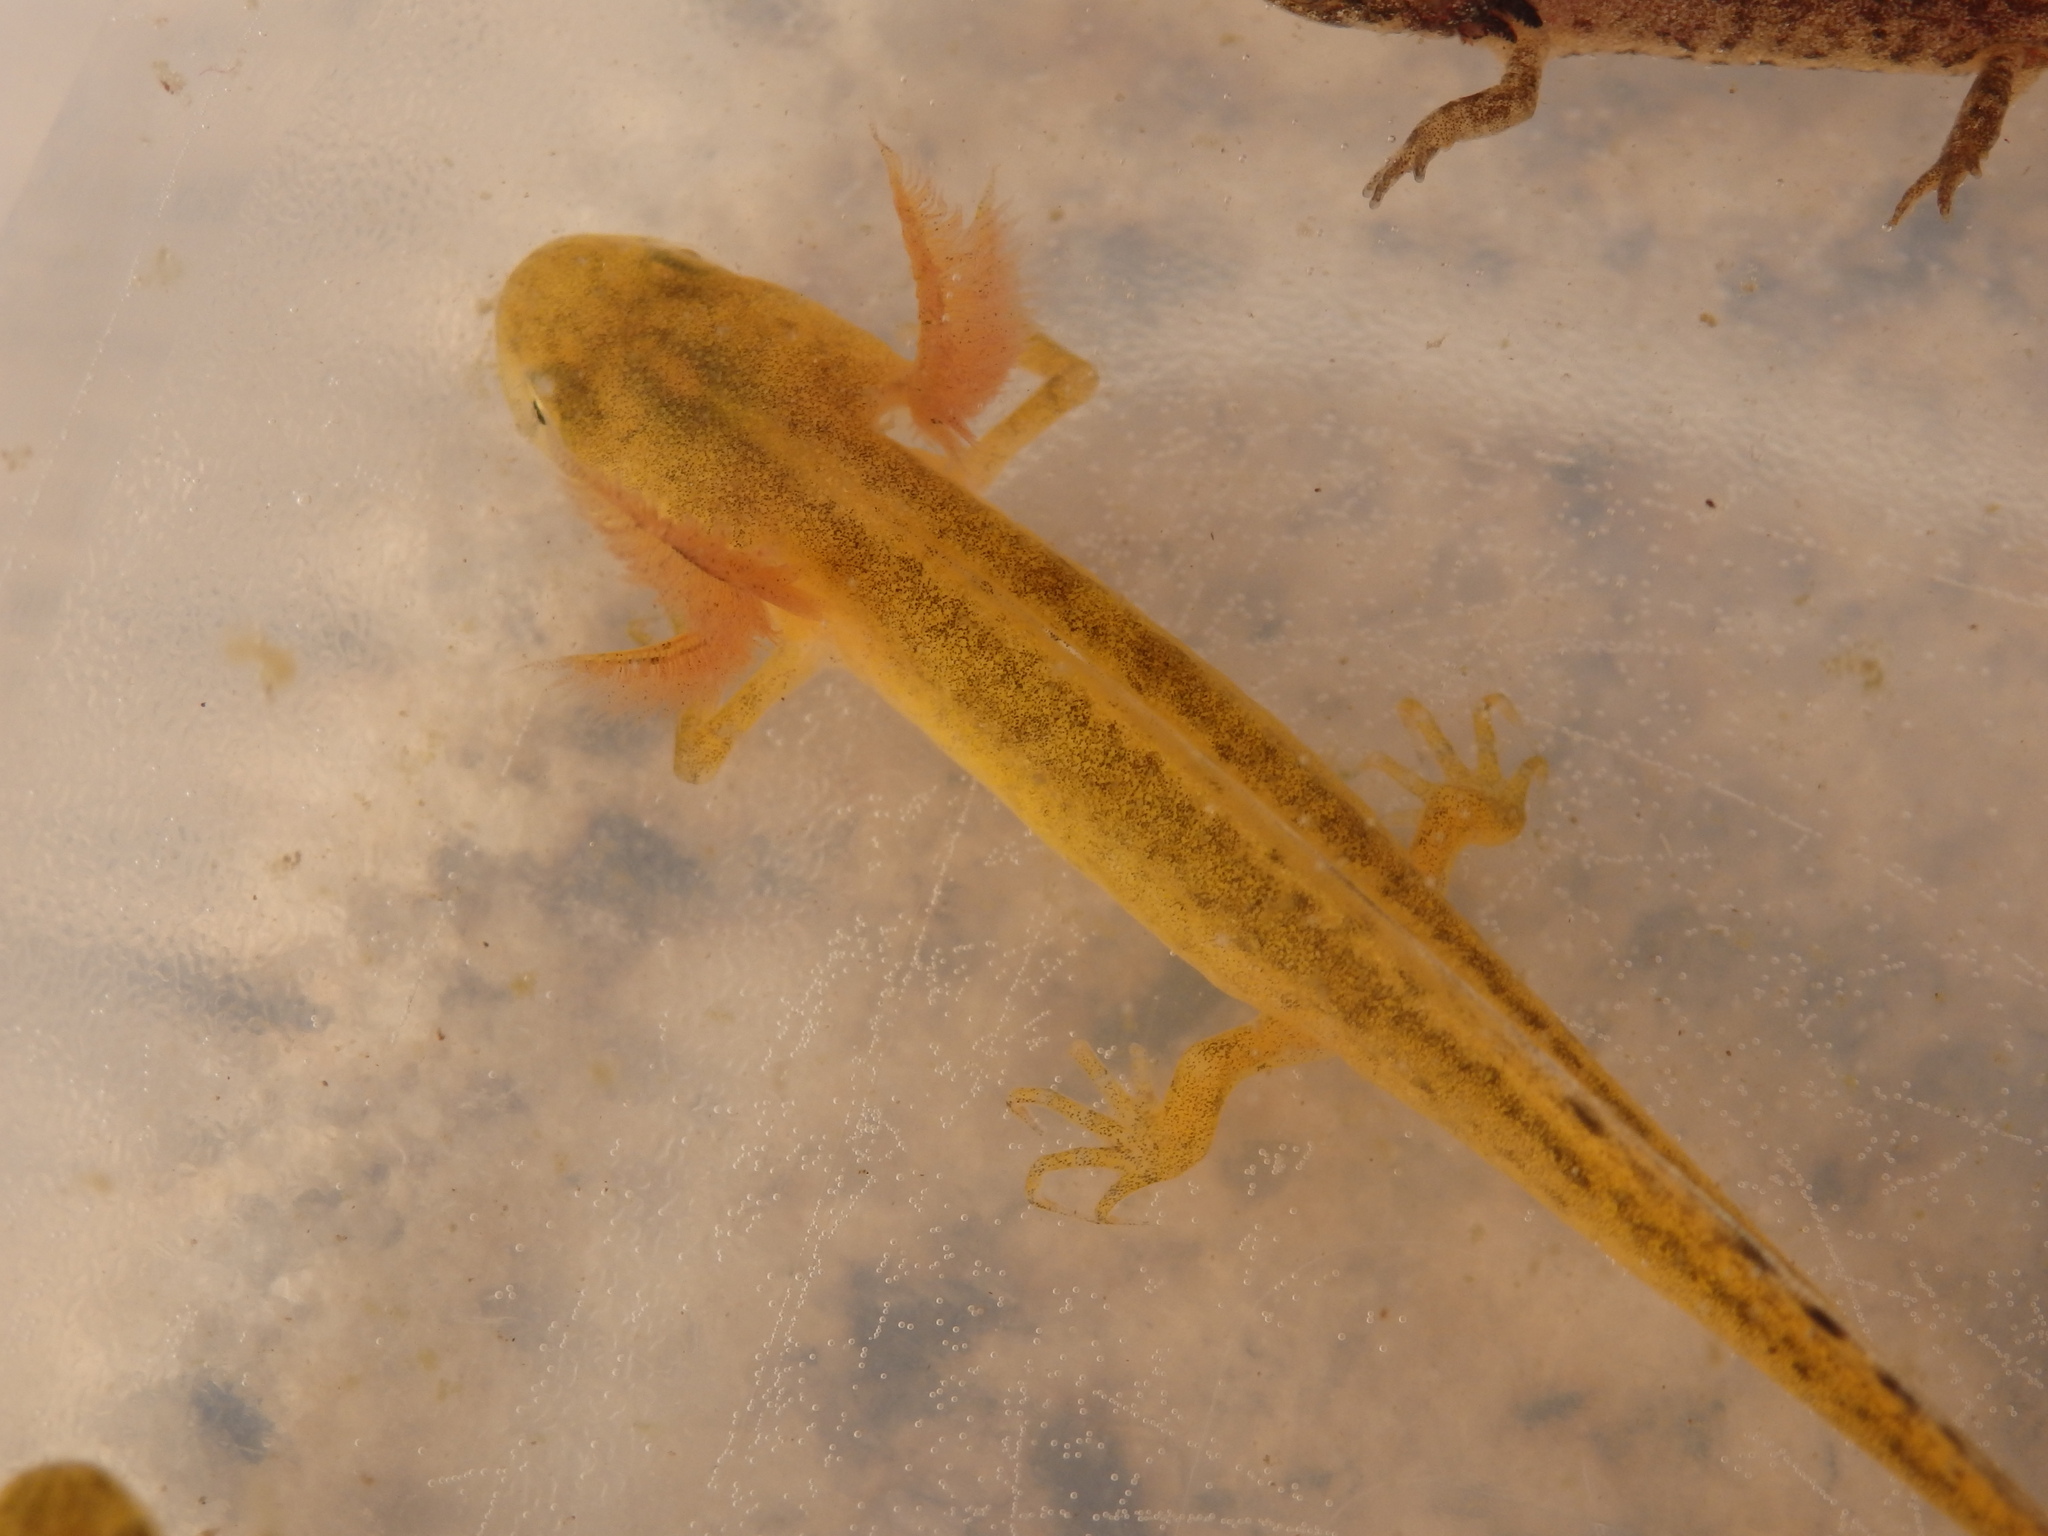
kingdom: Animalia
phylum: Chordata
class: Amphibia
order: Caudata
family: Salamandridae
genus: Triturus
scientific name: Triturus marmoratus
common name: Marbled newt
